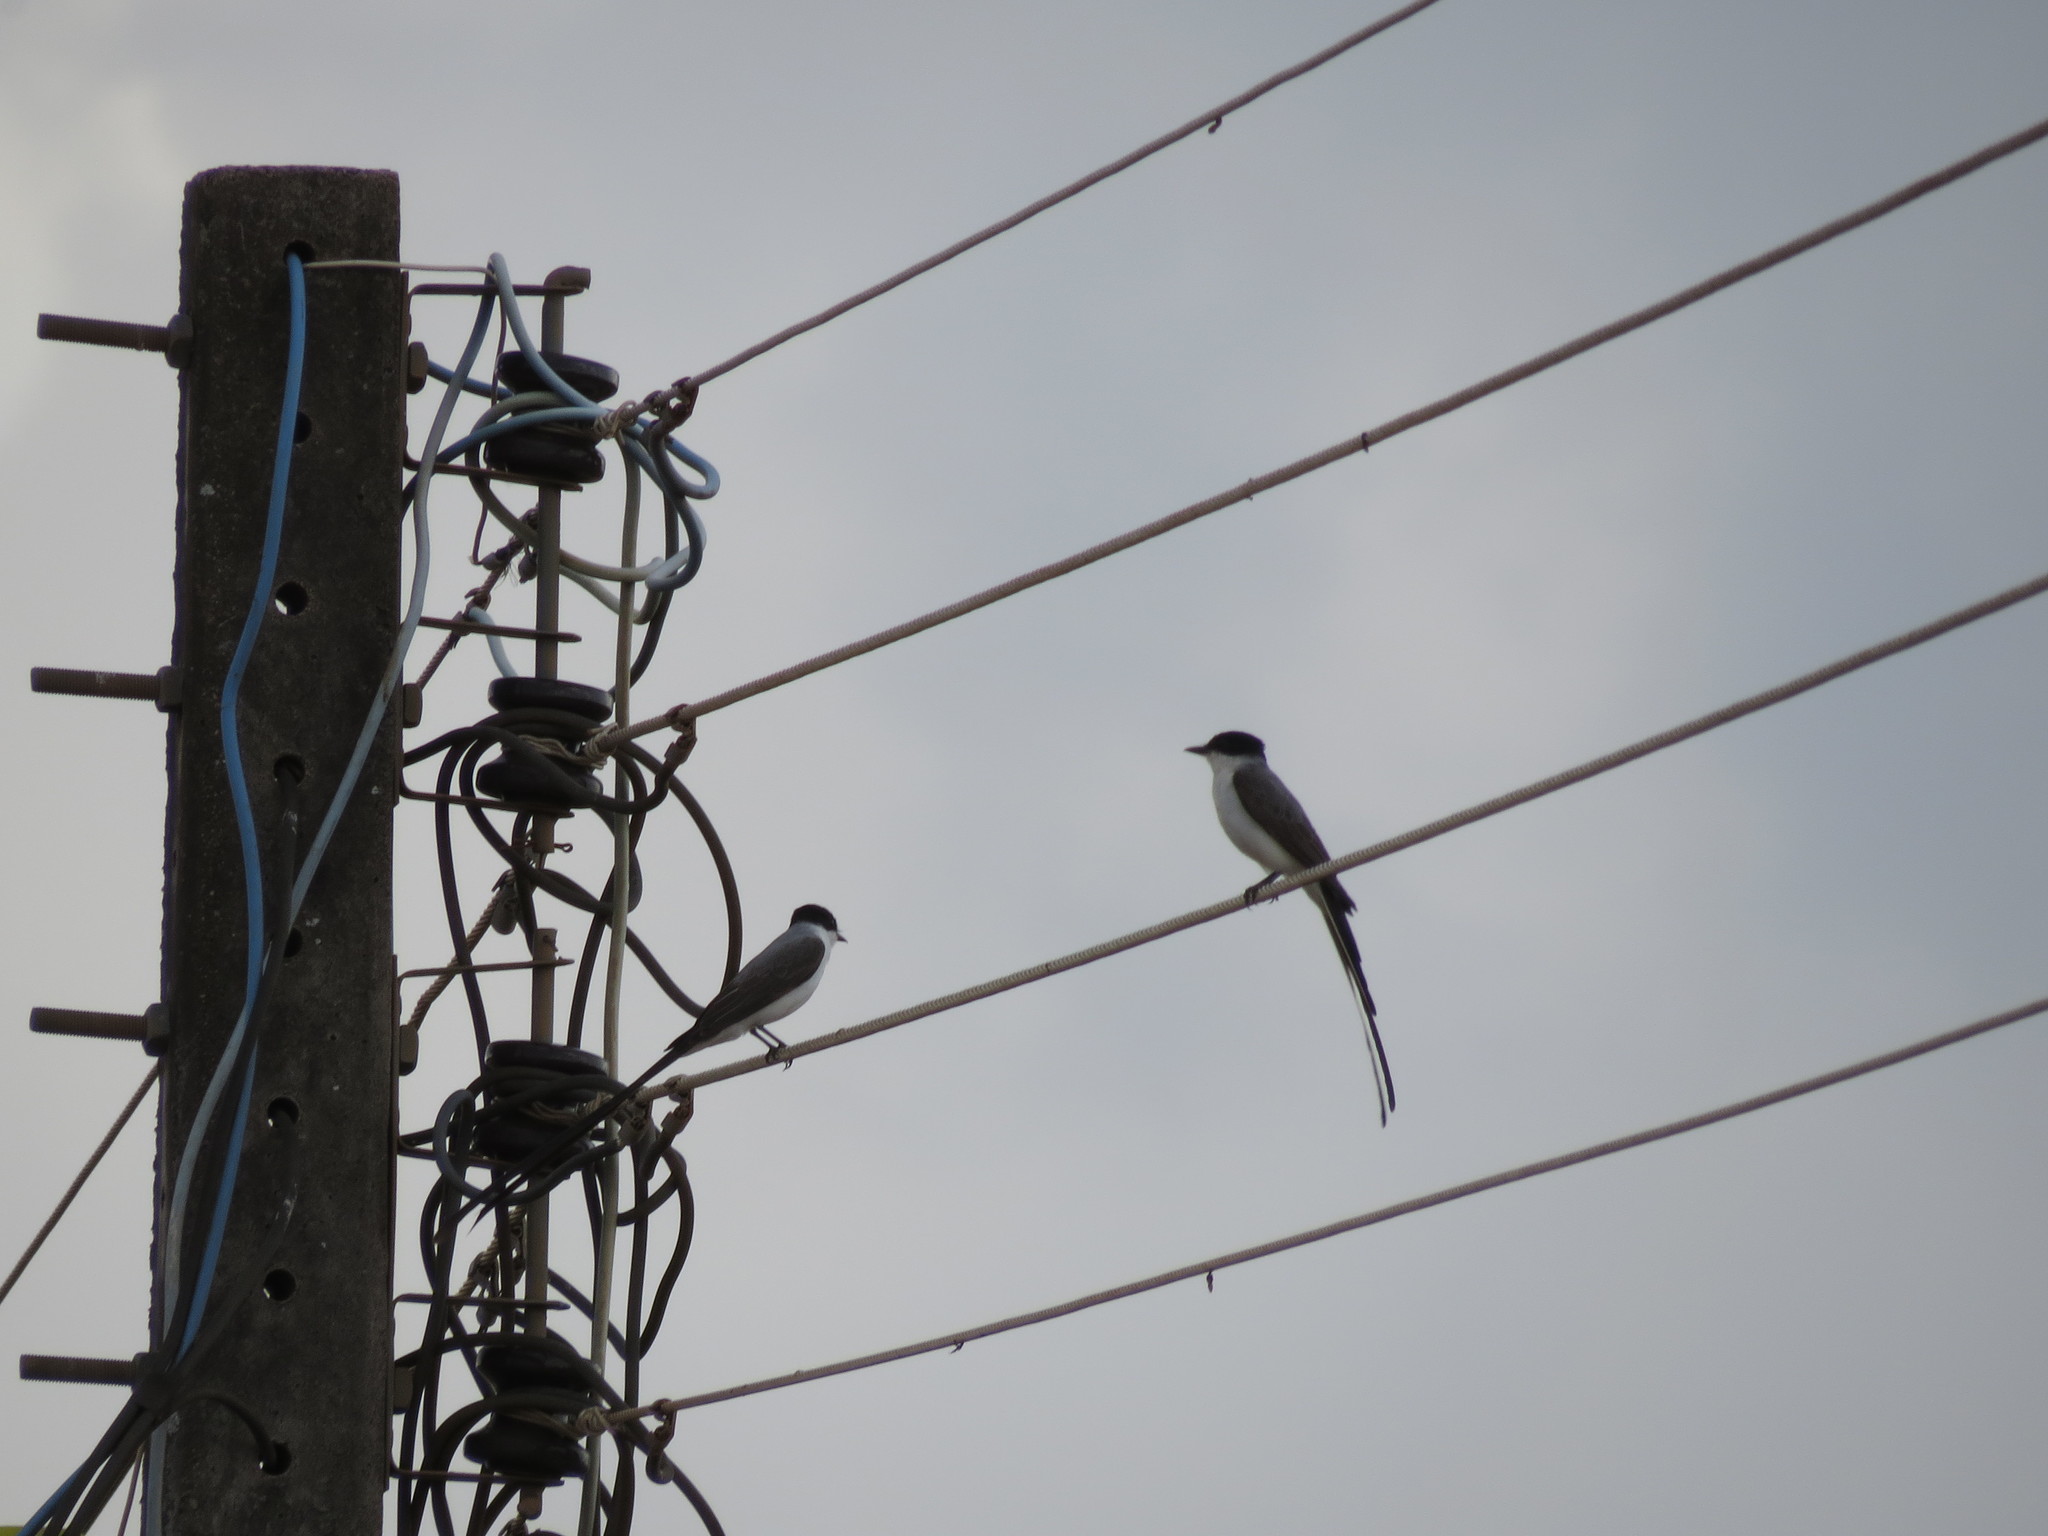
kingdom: Animalia
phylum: Chordata
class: Aves
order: Passeriformes
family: Tyrannidae
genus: Tyrannus
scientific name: Tyrannus savana
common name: Fork-tailed flycatcher
